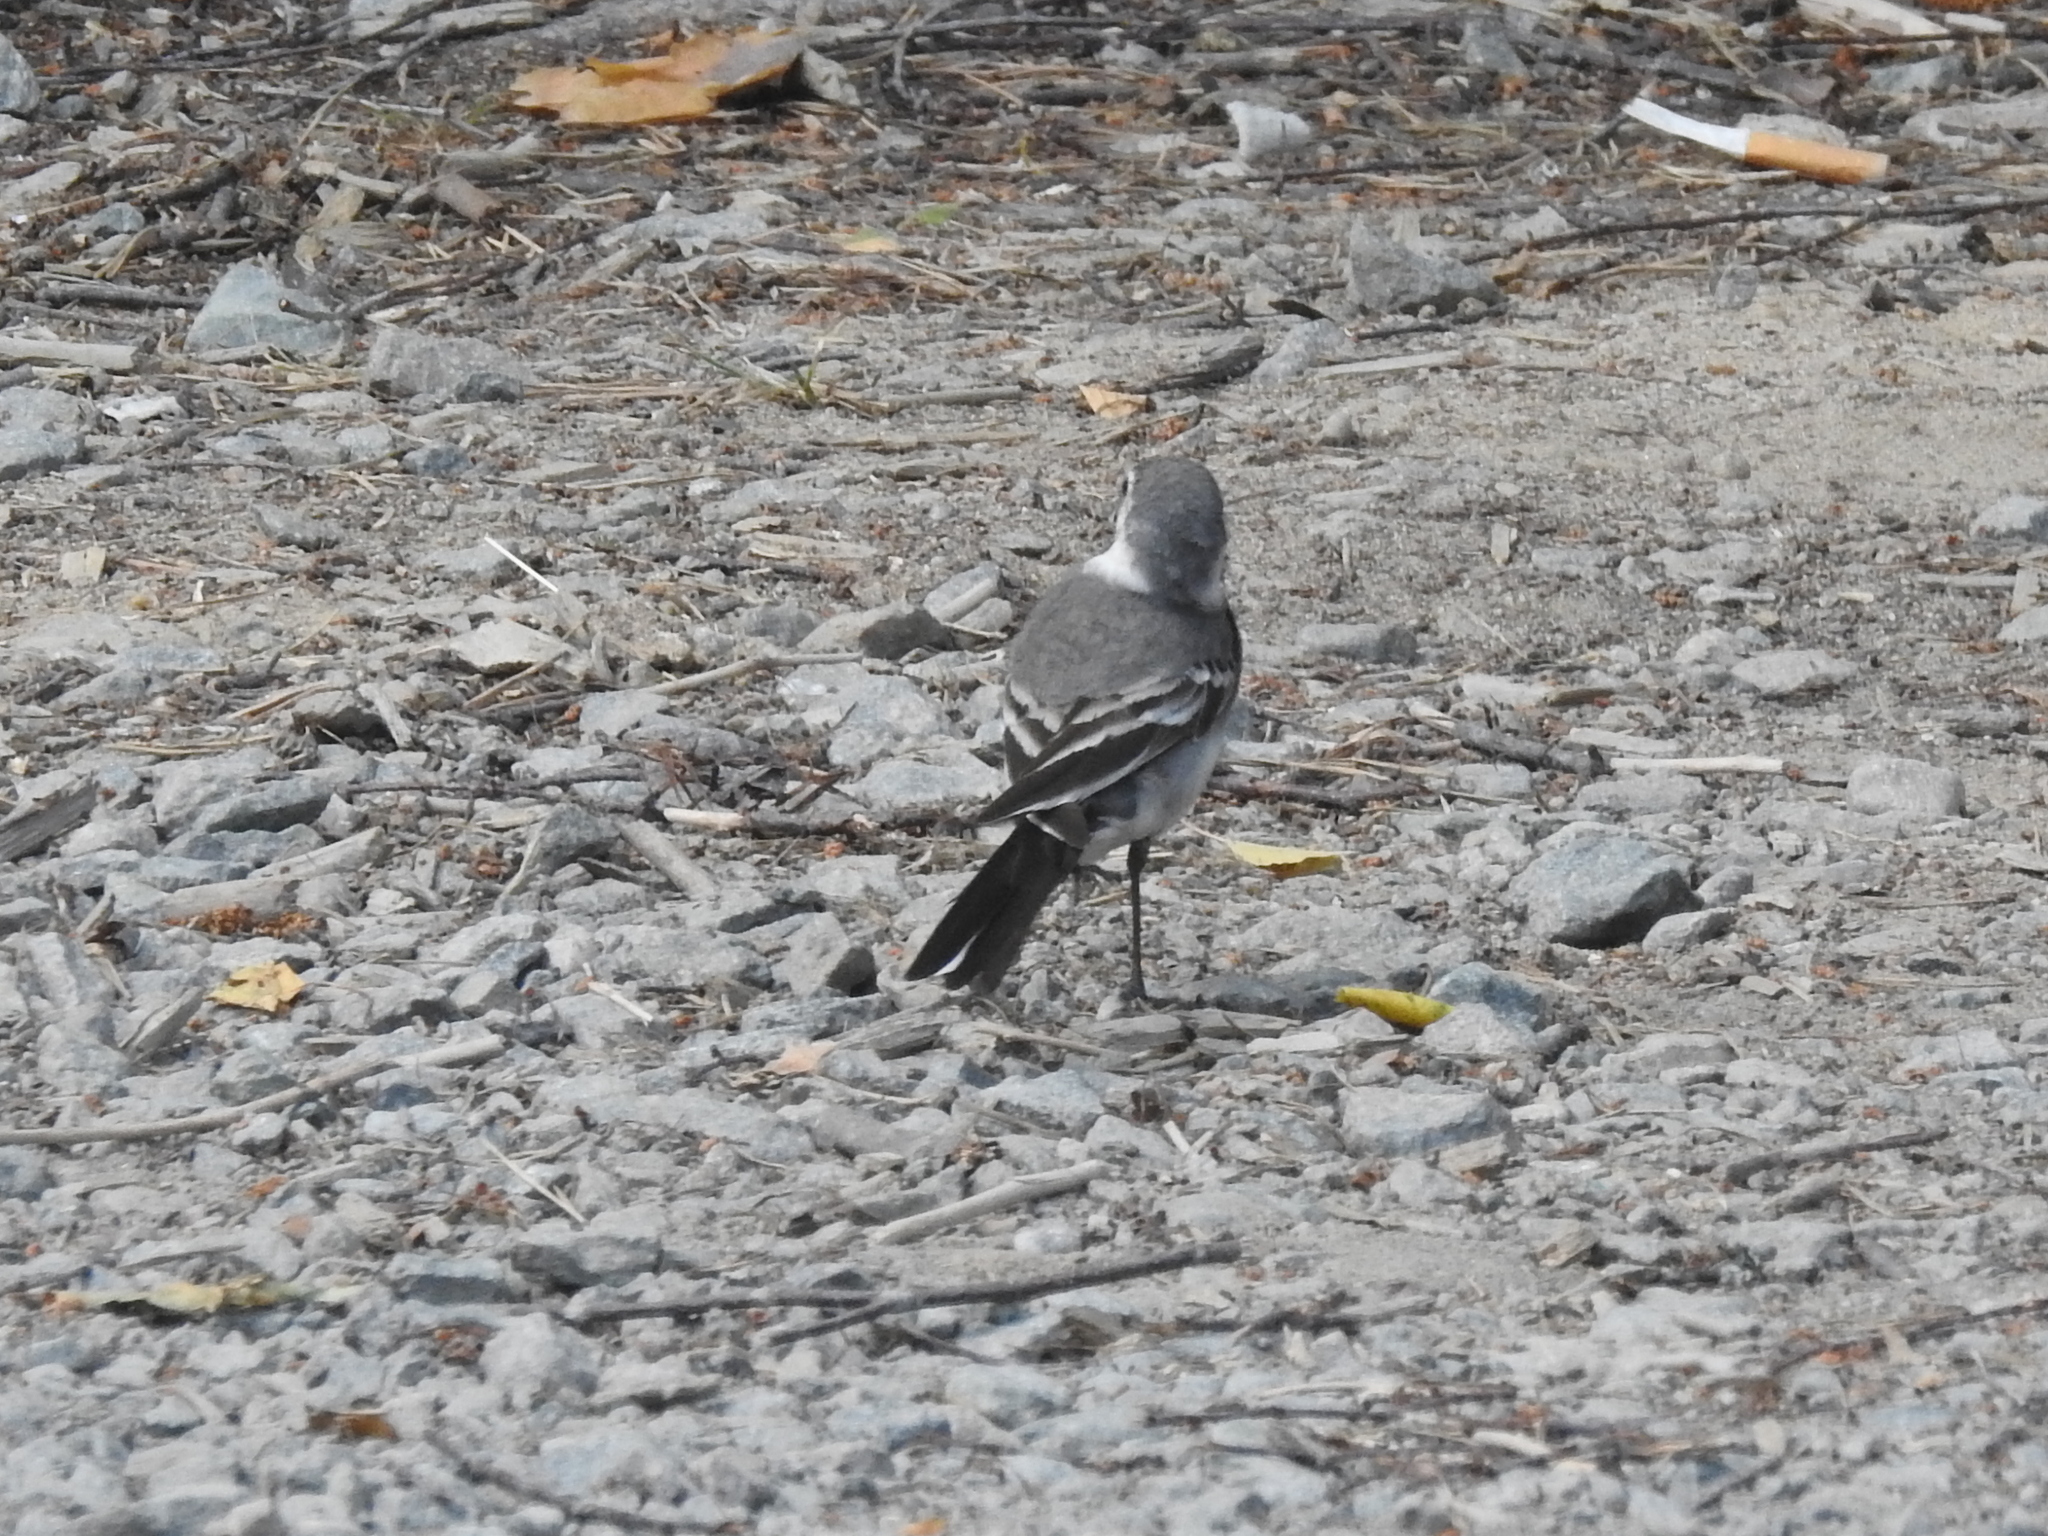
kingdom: Animalia
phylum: Chordata
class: Aves
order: Passeriformes
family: Motacillidae
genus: Motacilla
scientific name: Motacilla alba
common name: White wagtail
